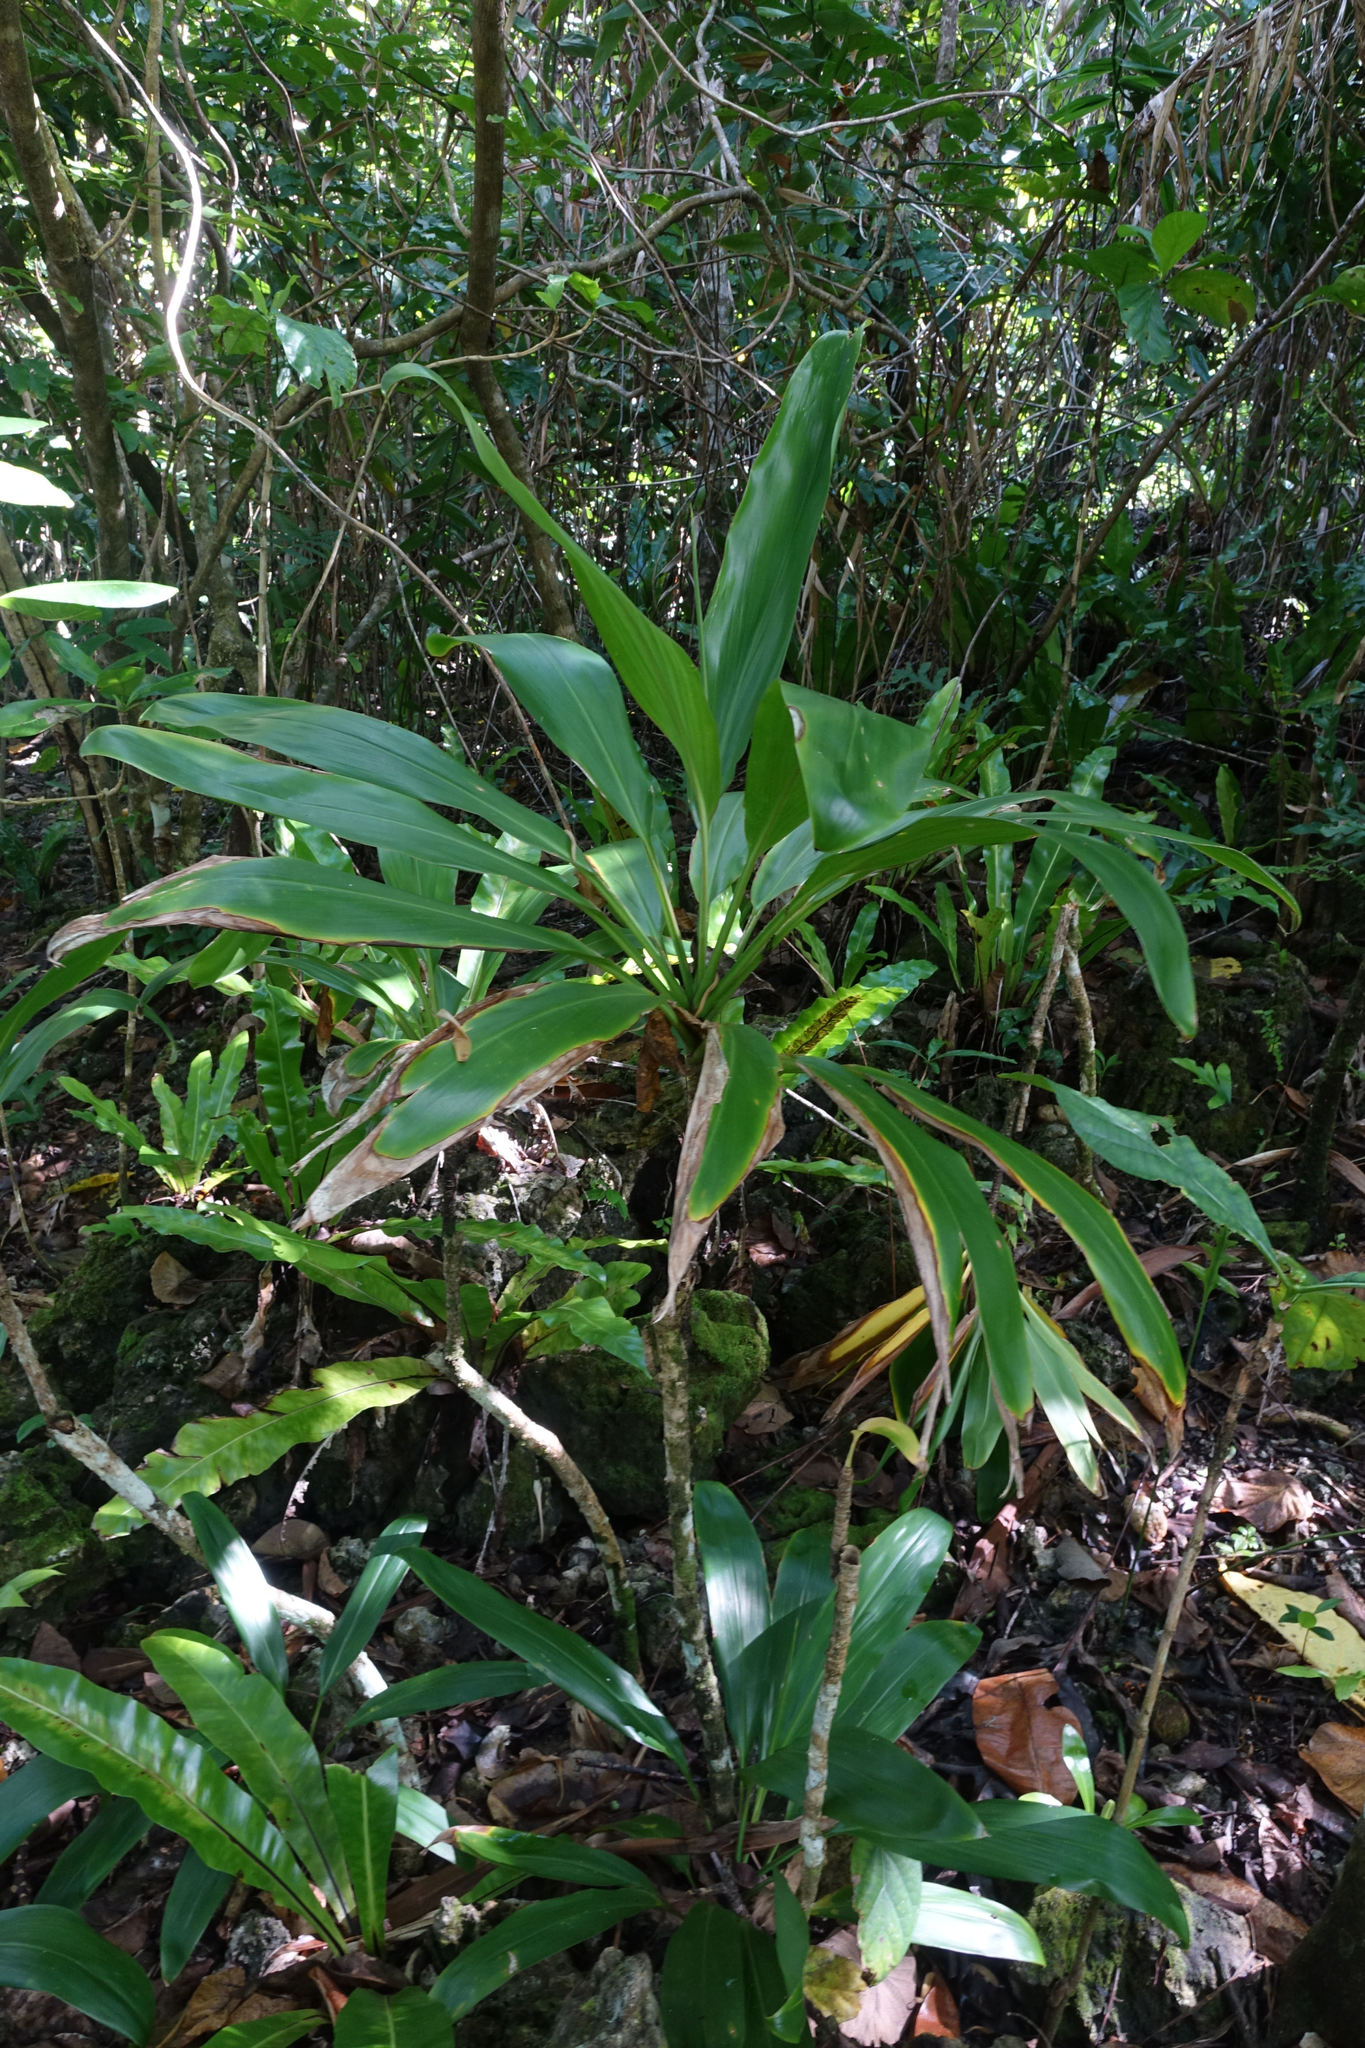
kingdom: Plantae
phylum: Tracheophyta
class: Liliopsida
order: Asparagales
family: Asparagaceae
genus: Cordyline
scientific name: Cordyline fruticosa
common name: Good-luck-plant
